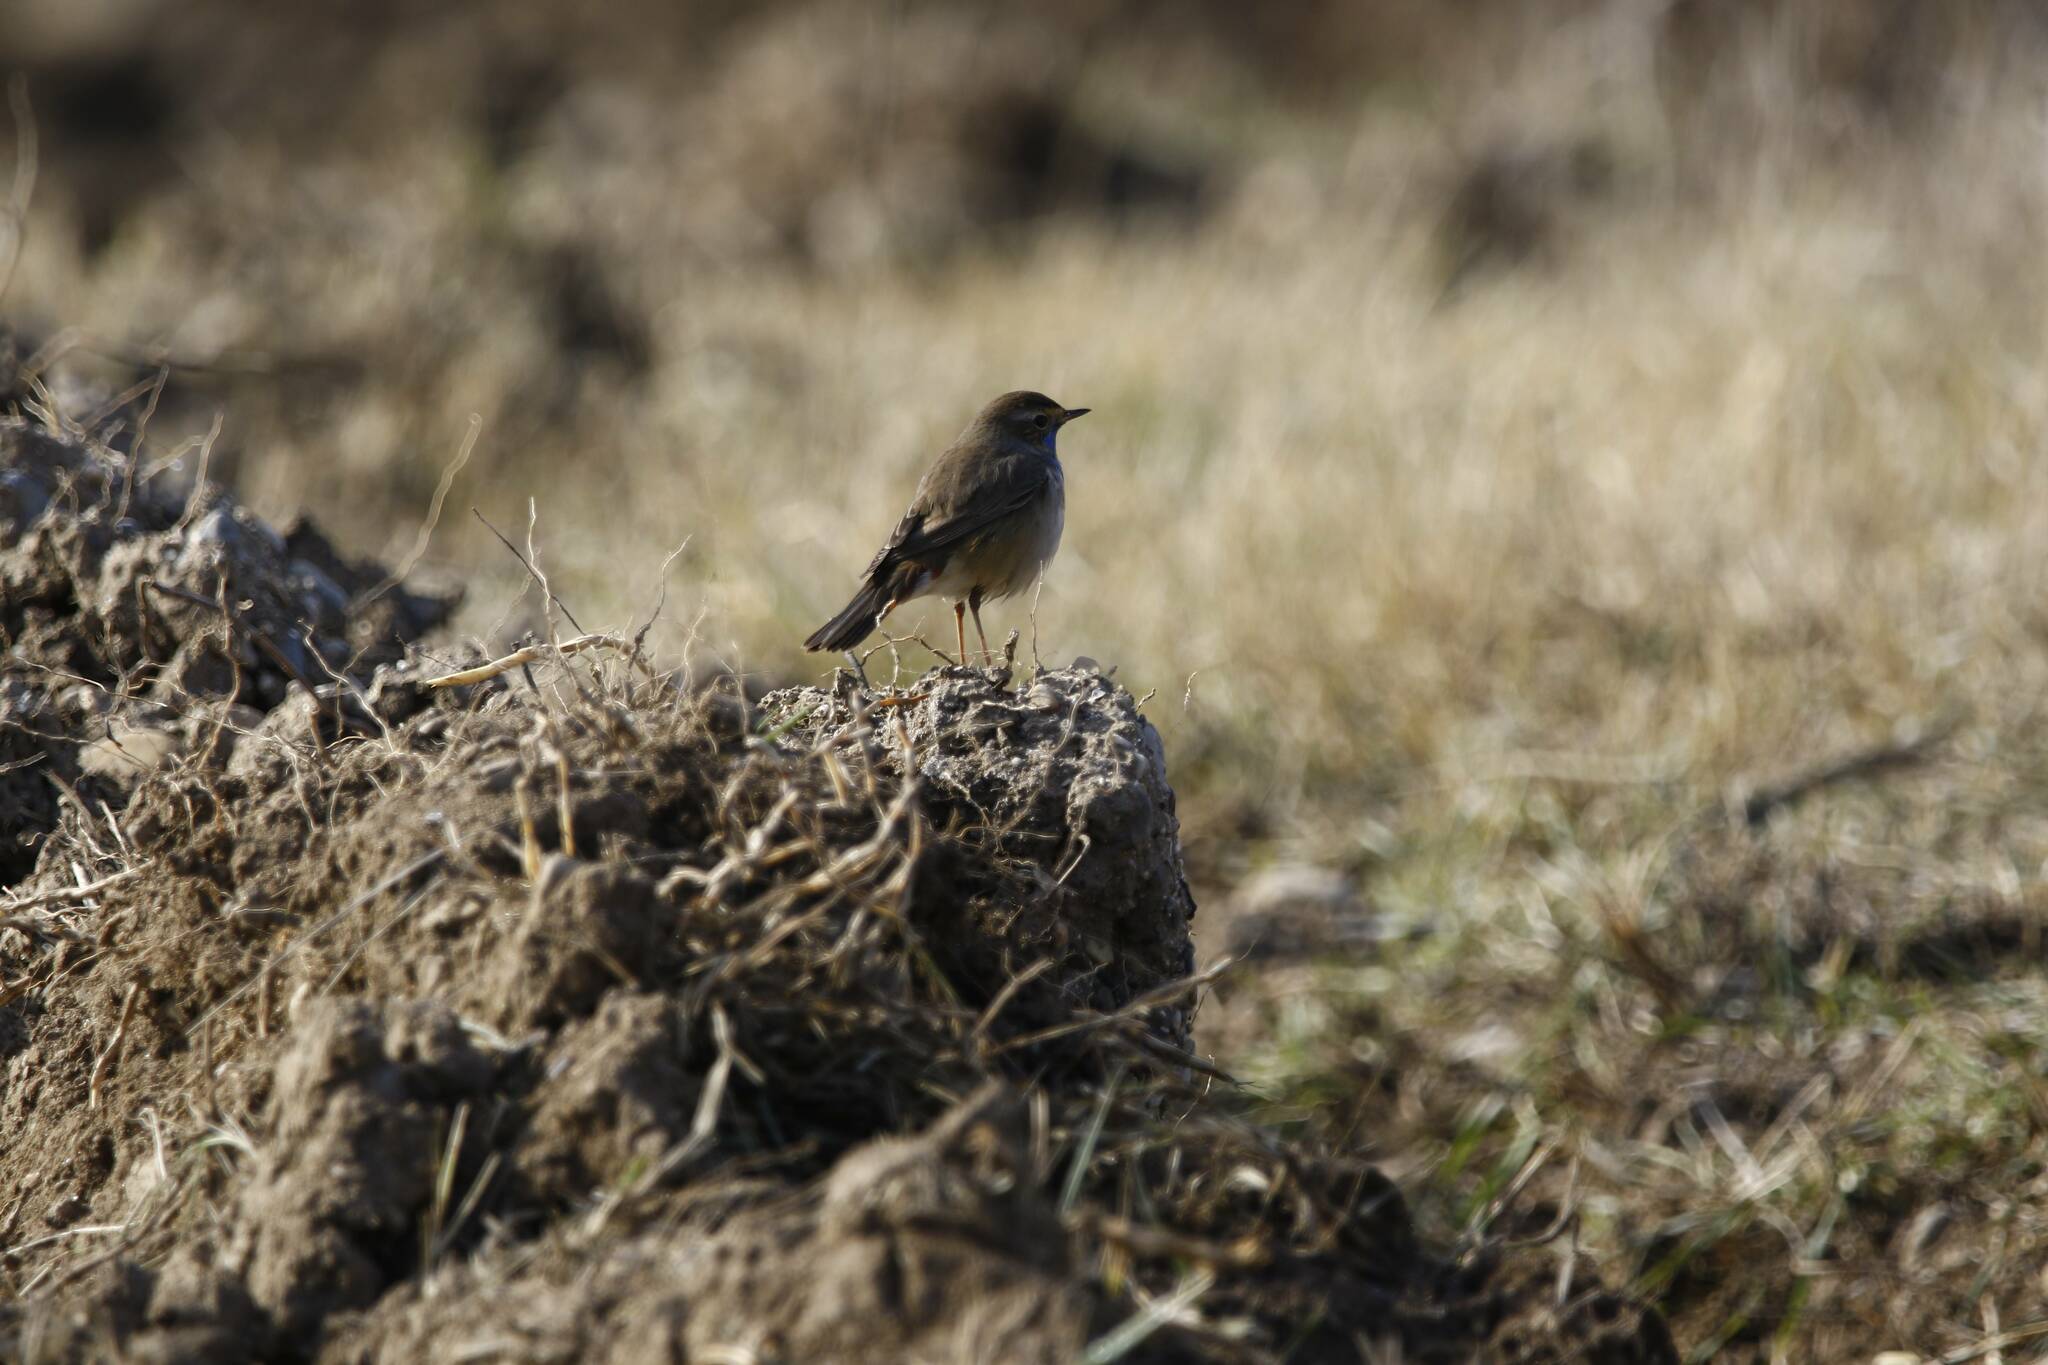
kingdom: Animalia
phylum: Chordata
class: Aves
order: Passeriformes
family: Muscicapidae
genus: Luscinia
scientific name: Luscinia svecica
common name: Bluethroat
